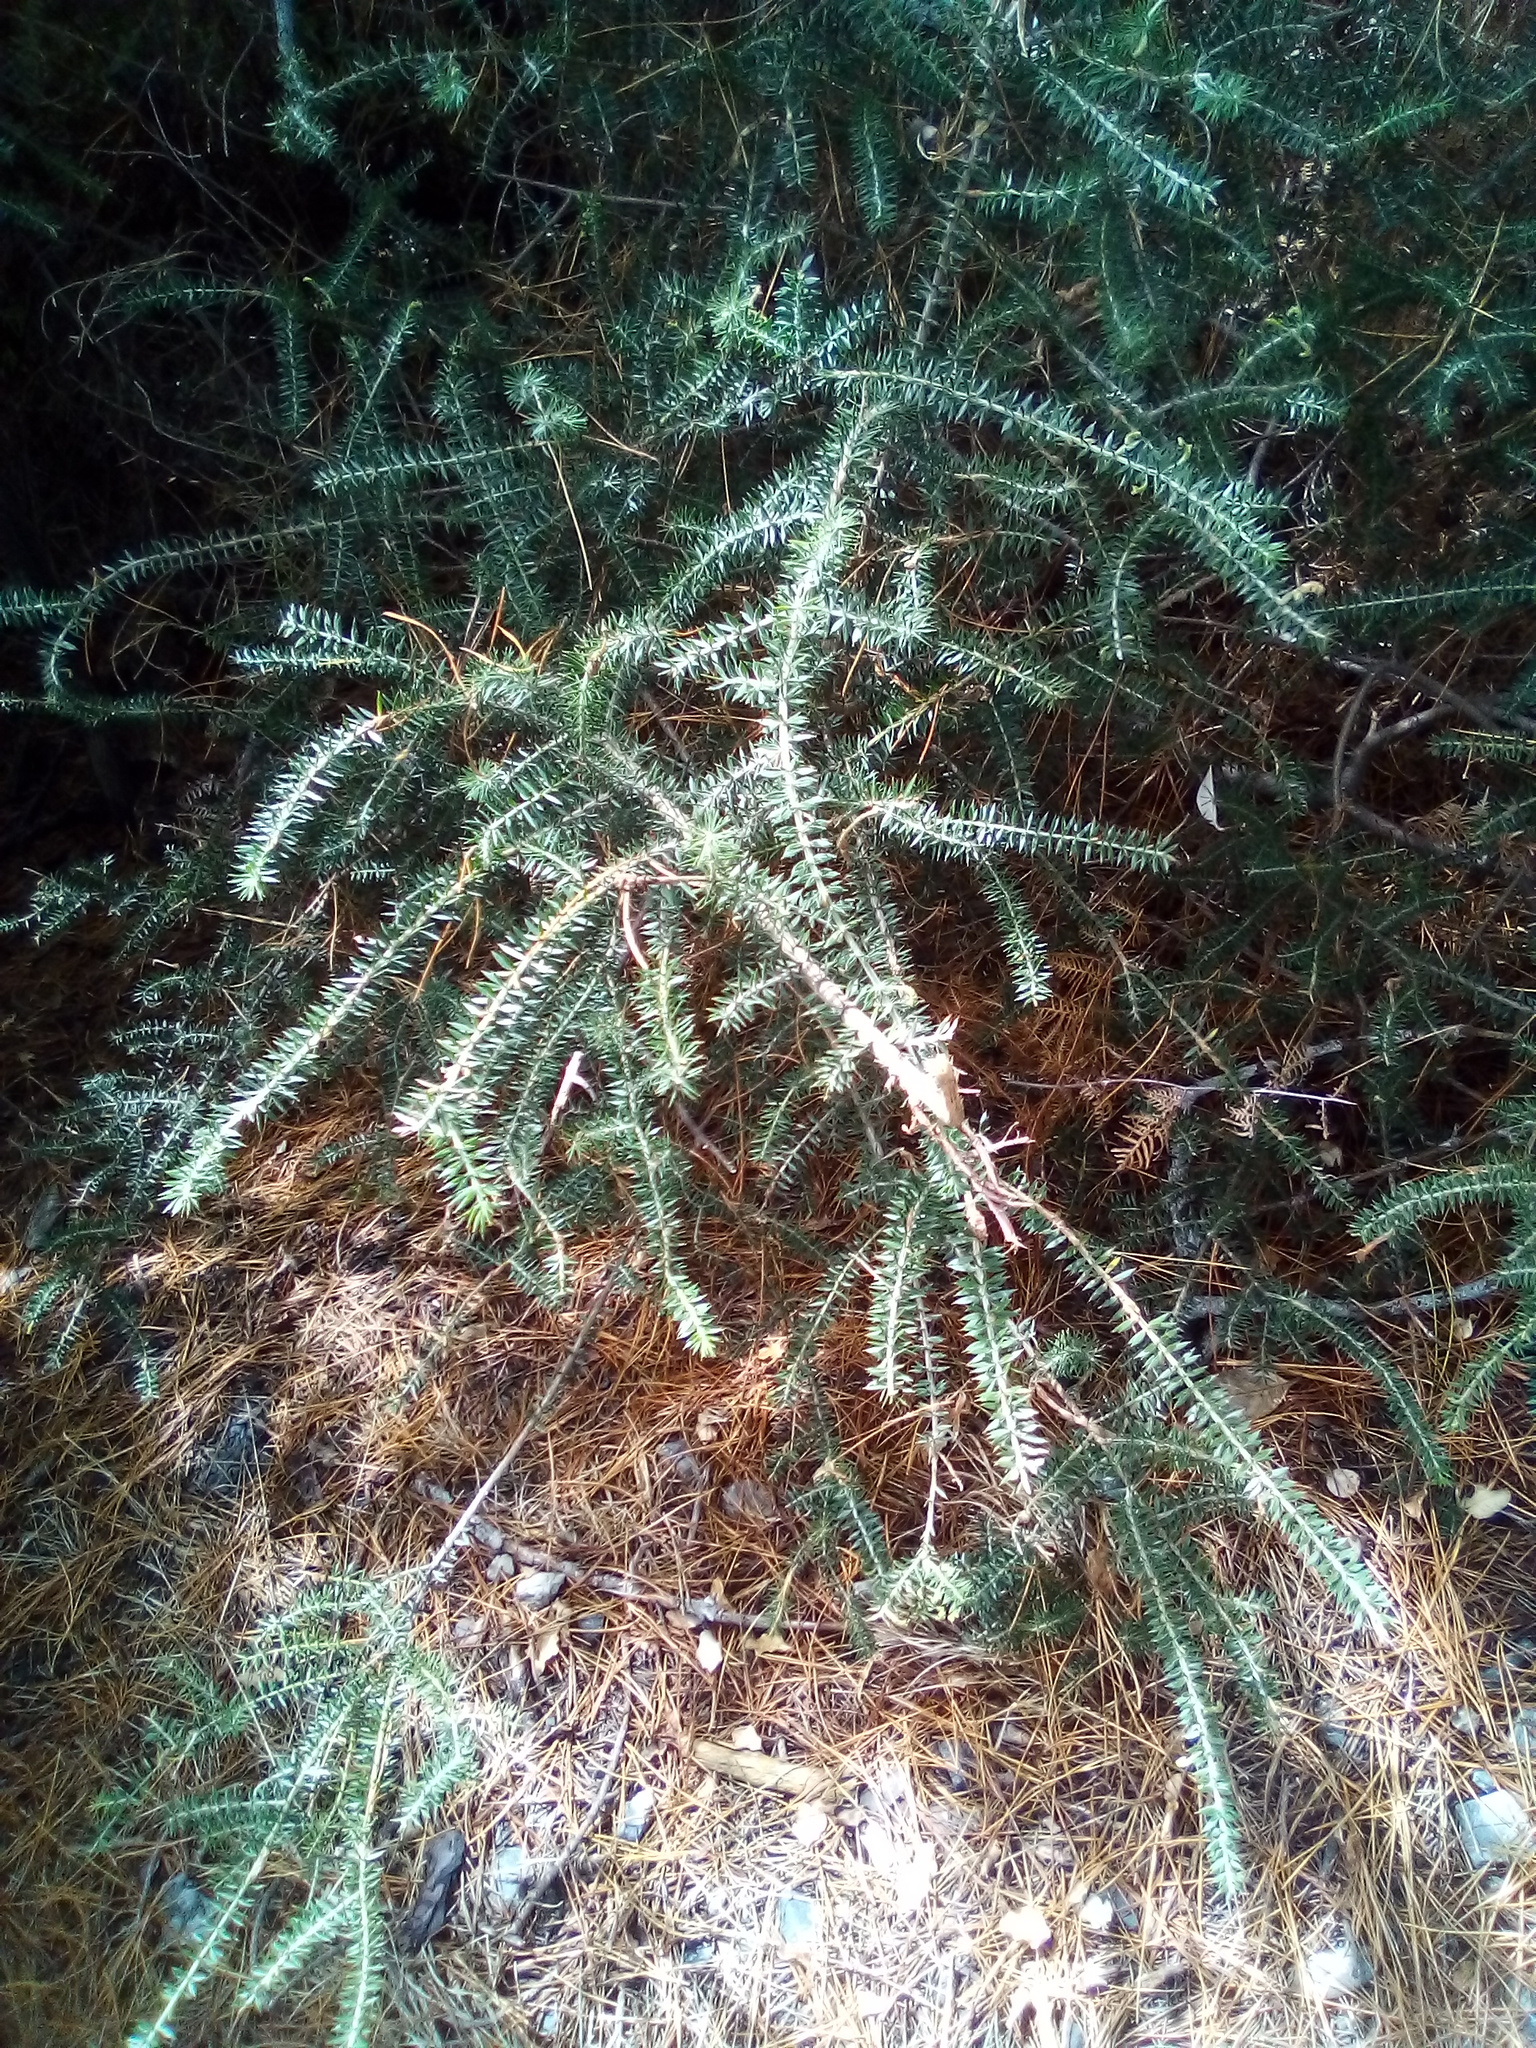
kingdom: Plantae
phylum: Tracheophyta
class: Magnoliopsida
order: Fabales
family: Fabaceae
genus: Acacia
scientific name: Acacia verticillata
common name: Prickly moses
